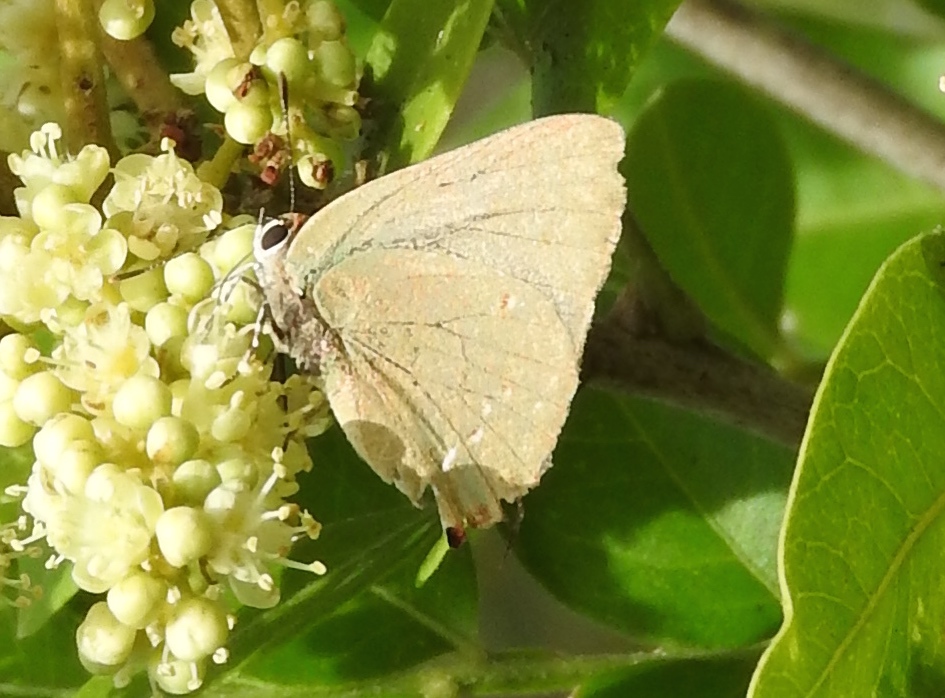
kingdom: Animalia
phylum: Arthropoda
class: Insecta
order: Lepidoptera
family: Lycaenidae
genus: Thecla
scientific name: Thecla herodotus
